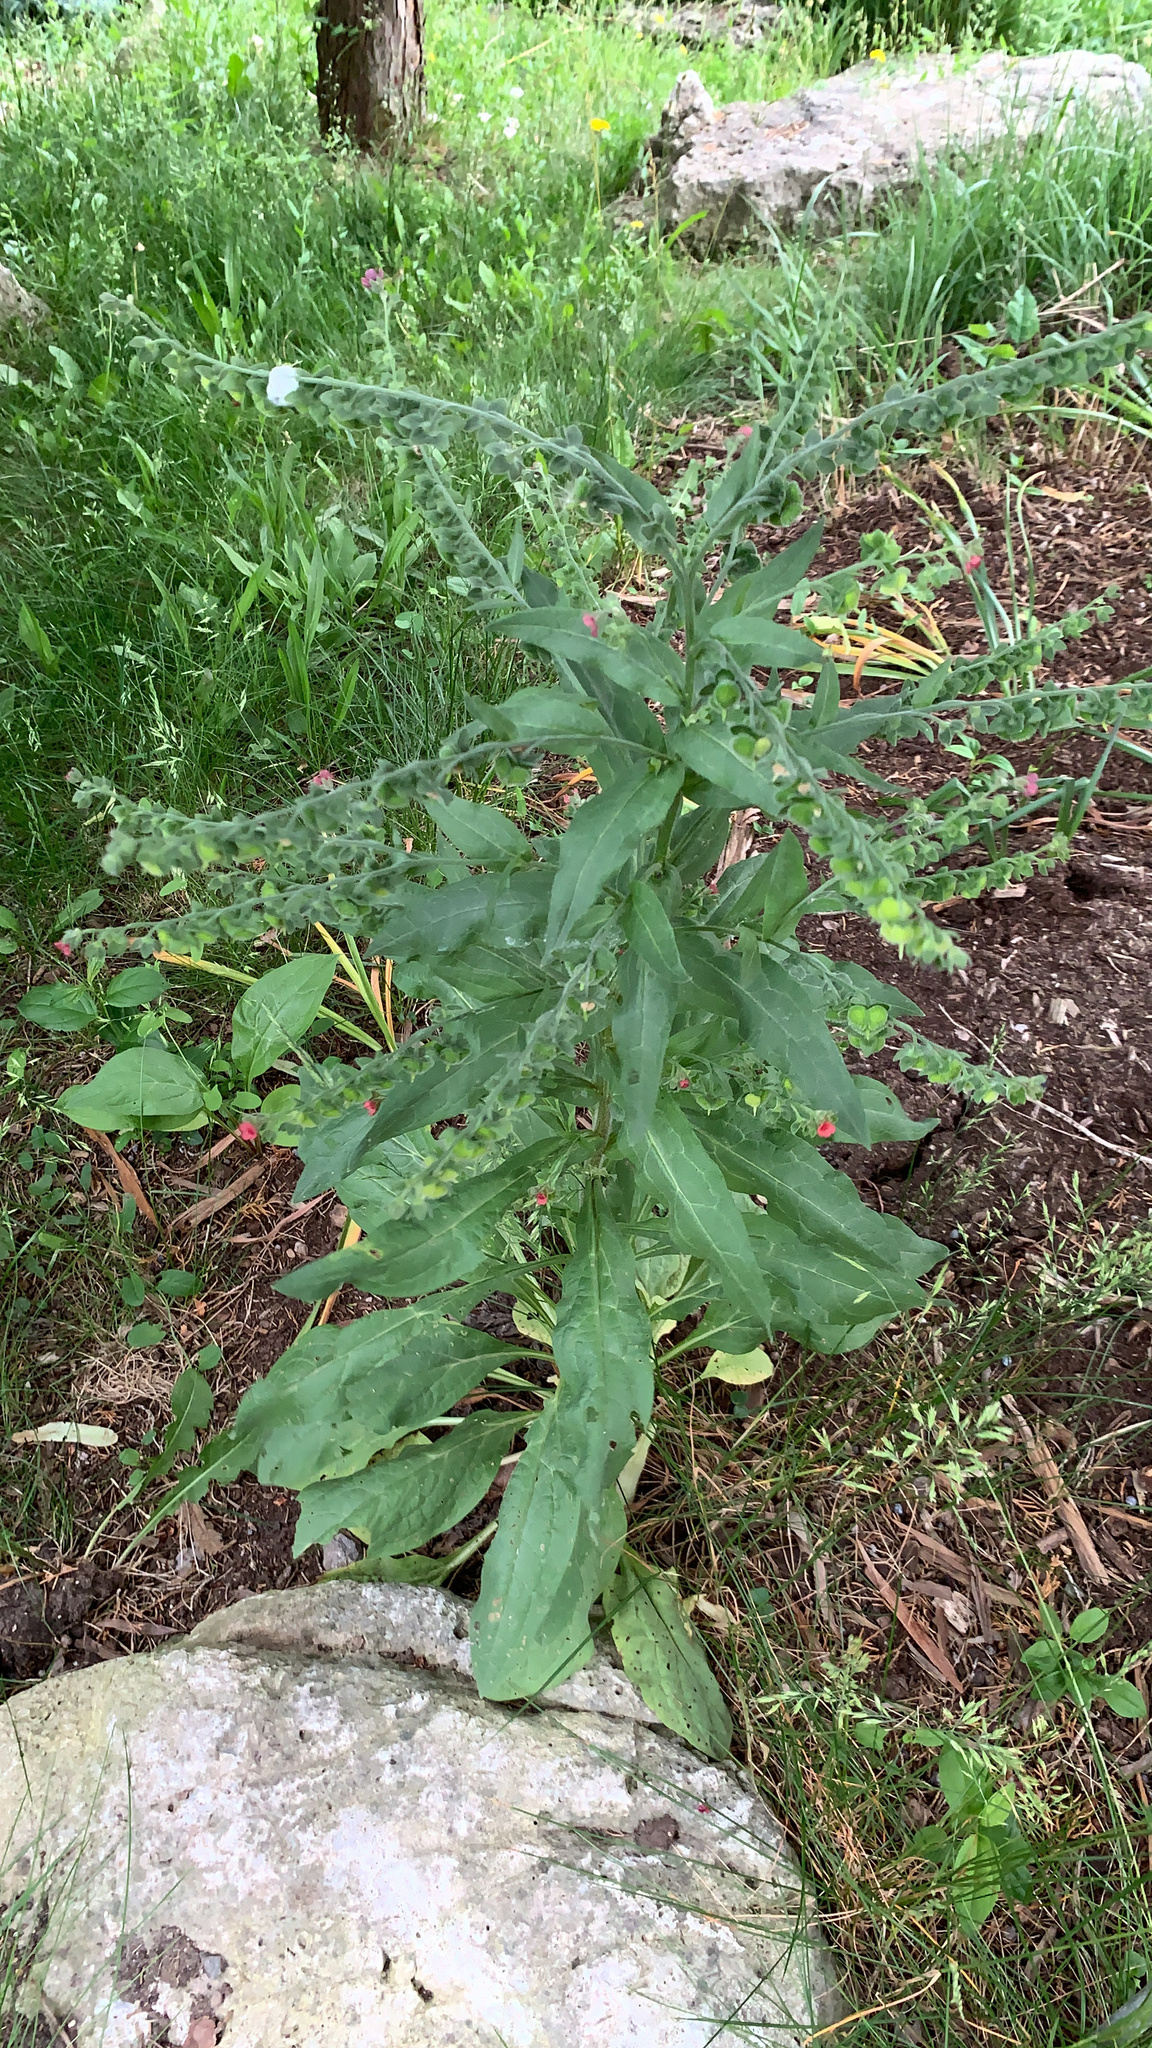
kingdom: Plantae
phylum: Tracheophyta
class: Magnoliopsida
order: Boraginales
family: Boraginaceae
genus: Cynoglossum
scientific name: Cynoglossum officinale
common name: Hound's-tongue
